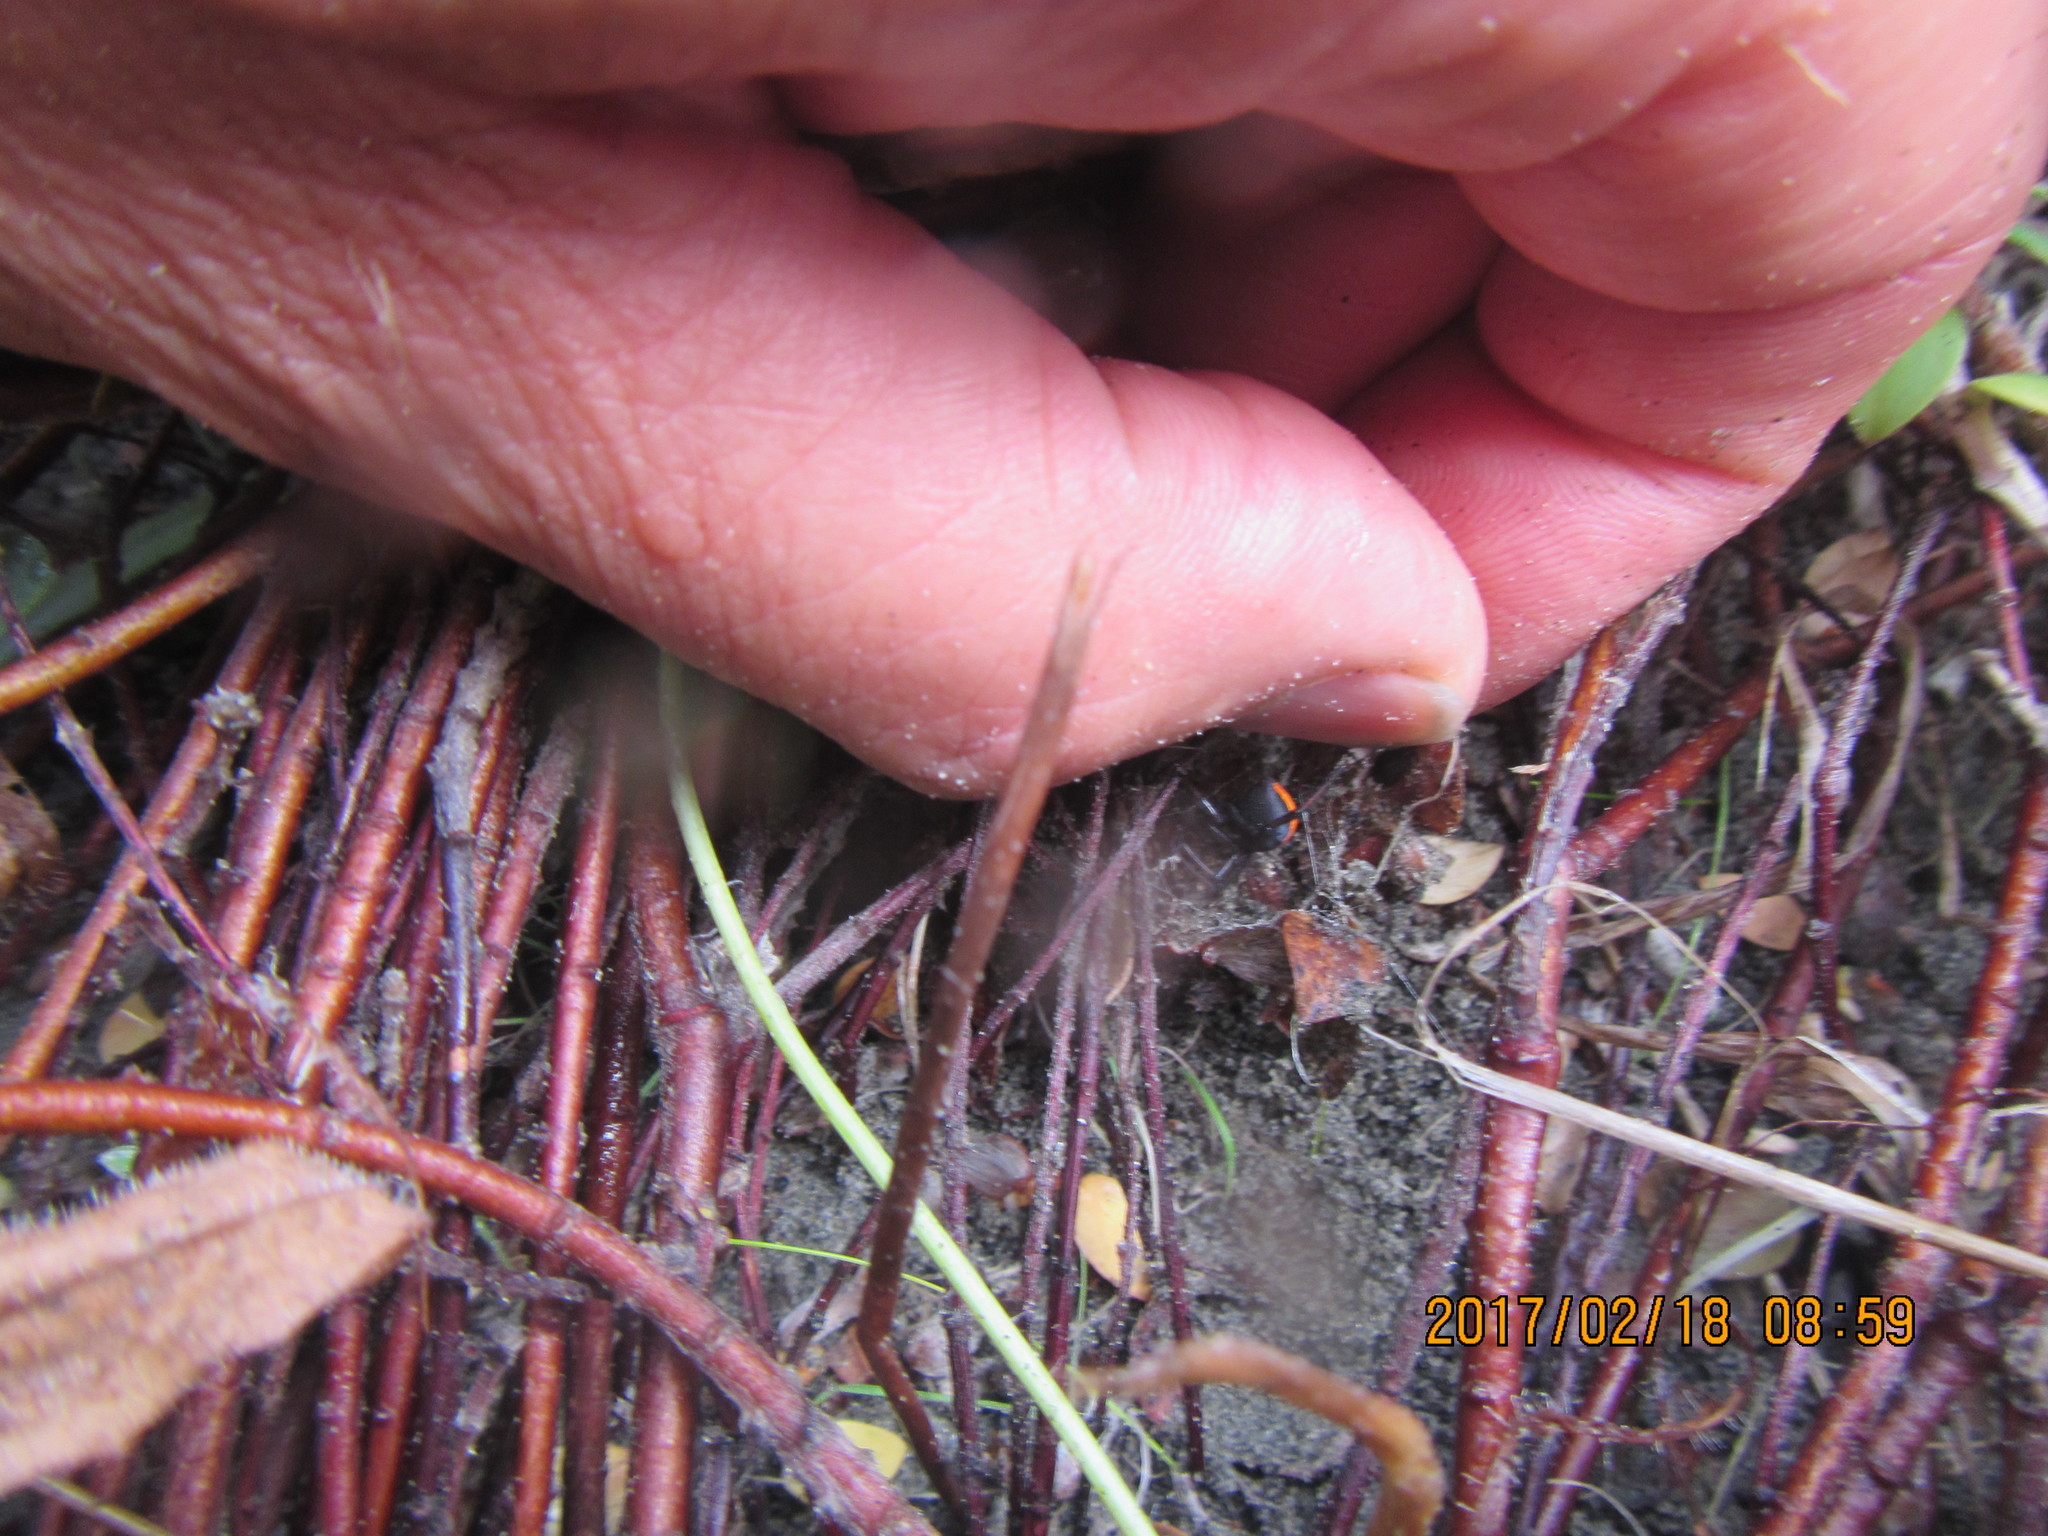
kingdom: Animalia
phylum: Arthropoda
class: Arachnida
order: Araneae
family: Theridiidae
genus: Latrodectus
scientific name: Latrodectus katipo
